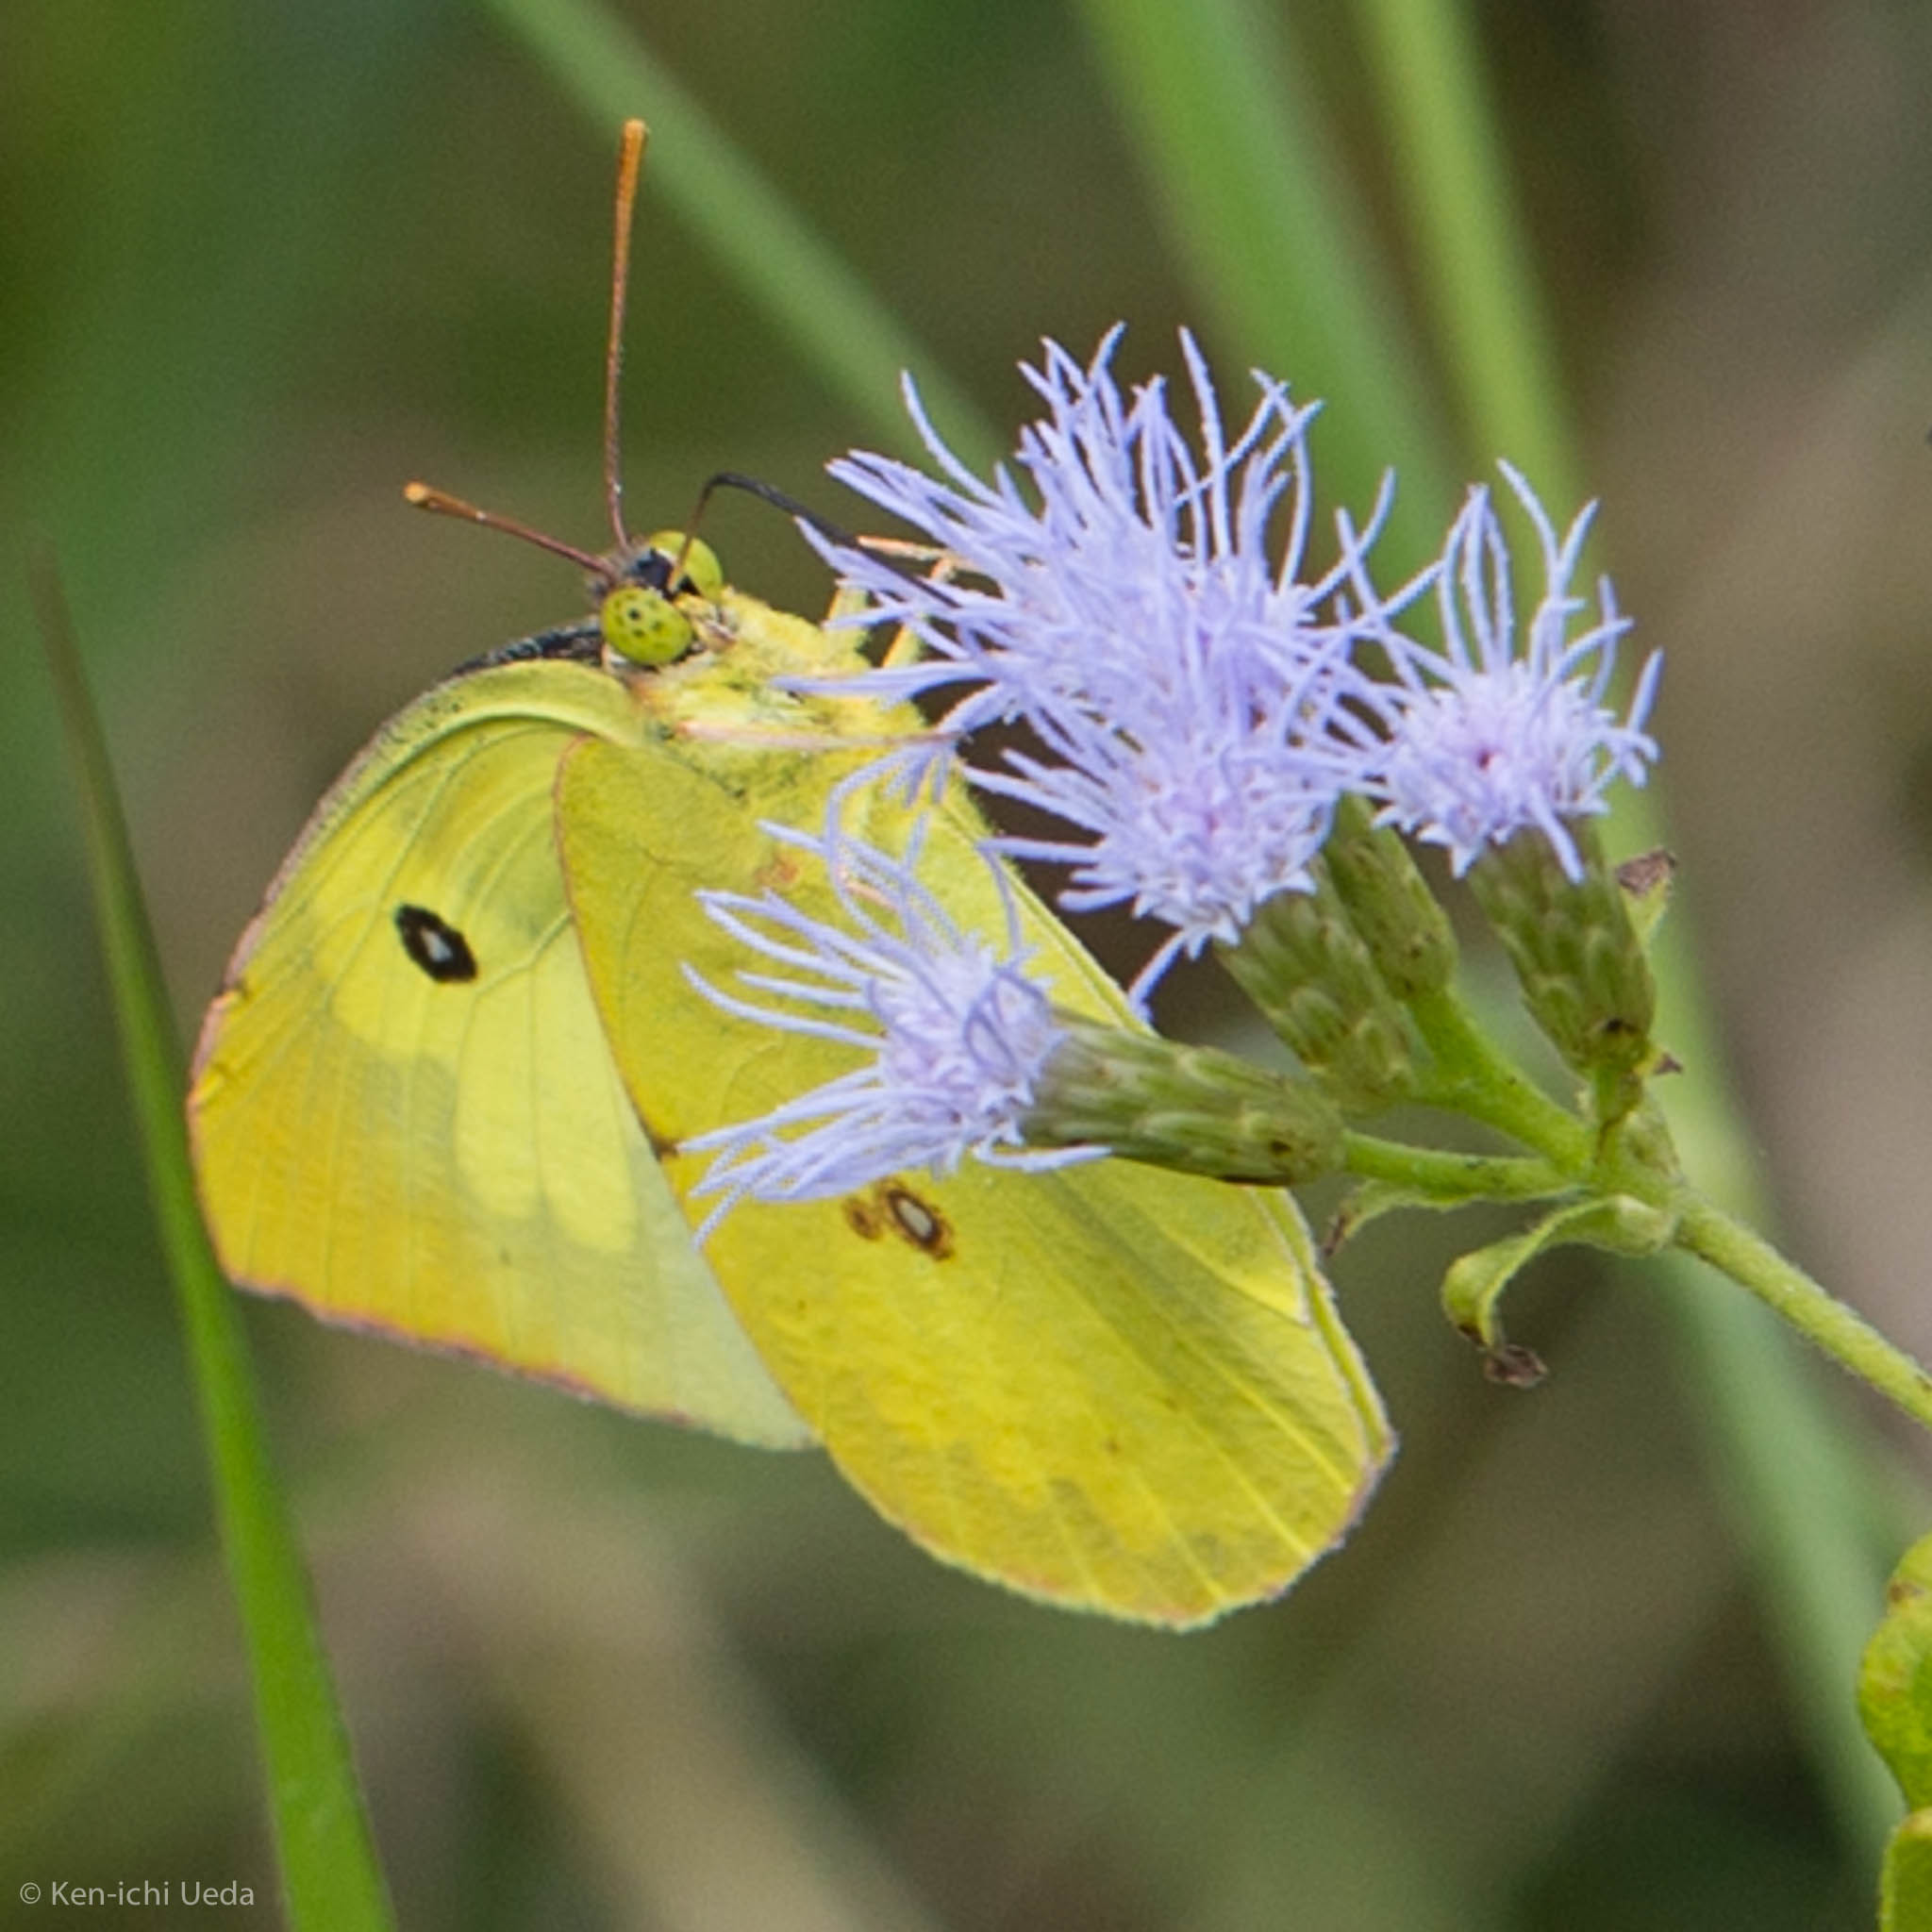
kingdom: Animalia
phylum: Arthropoda
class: Insecta
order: Lepidoptera
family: Pieridae
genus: Zerene
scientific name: Zerene cesonia
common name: Southern dogface
